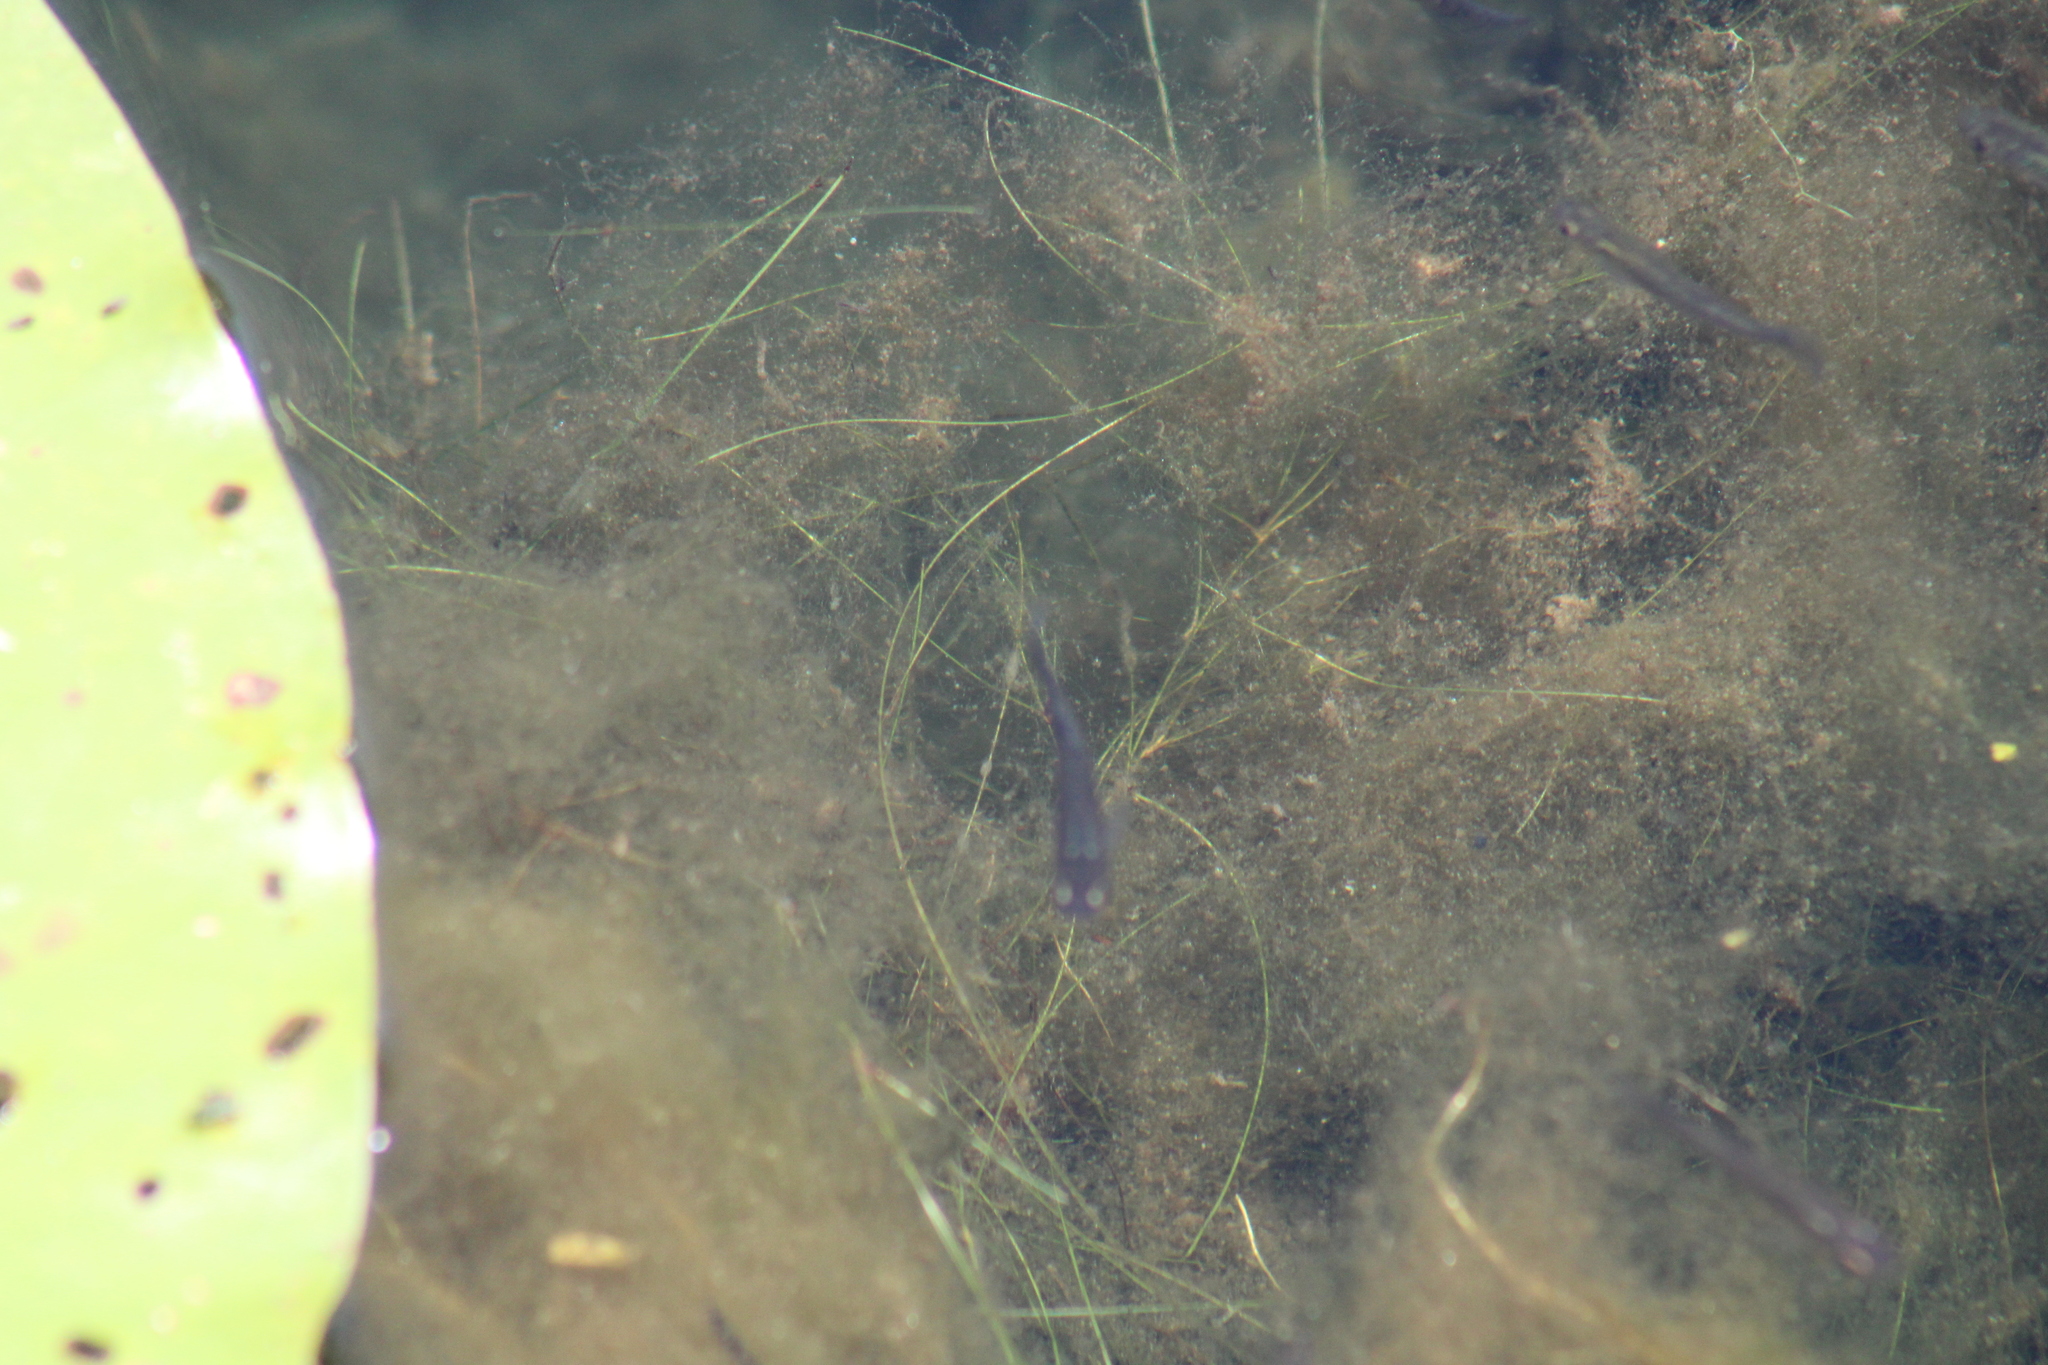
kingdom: Animalia
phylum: Chordata
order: Cyprinodontiformes
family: Poeciliidae
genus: Gambusia
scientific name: Gambusia holbrooki
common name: Eastern mosquitofish
